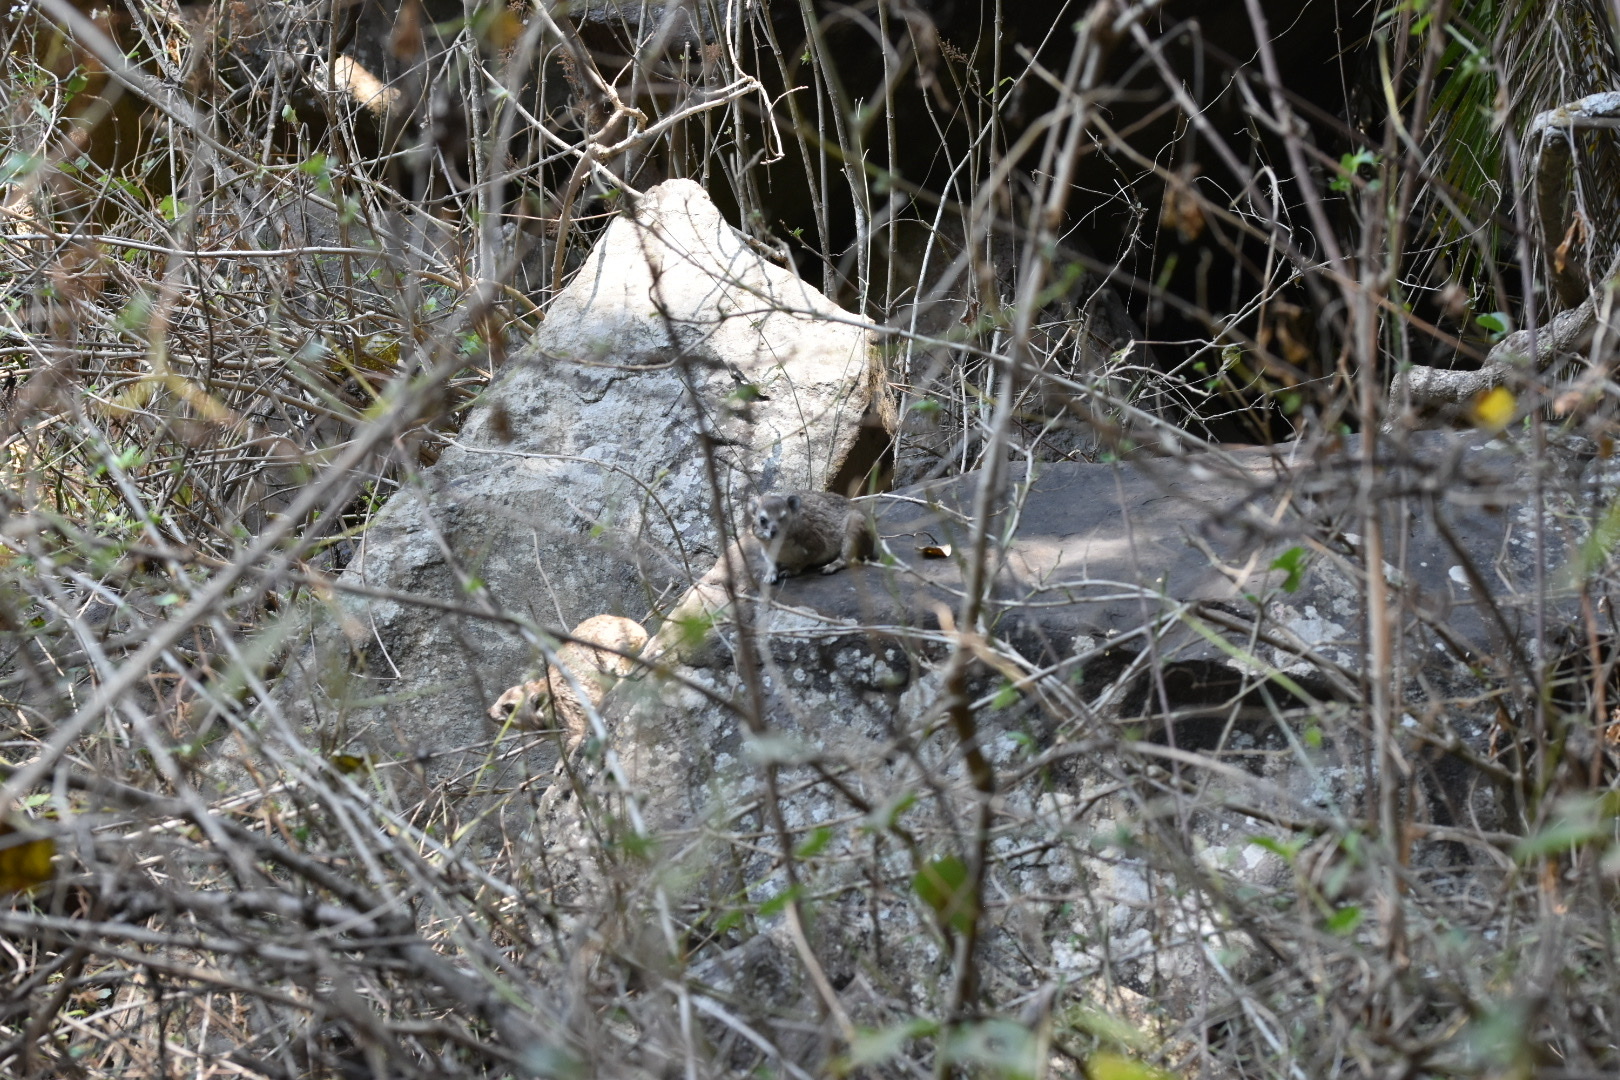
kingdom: Animalia
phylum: Chordata
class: Mammalia
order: Hyracoidea
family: Procaviidae
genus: Heterohyrax
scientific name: Heterohyrax brucei
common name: Bush hyrax
